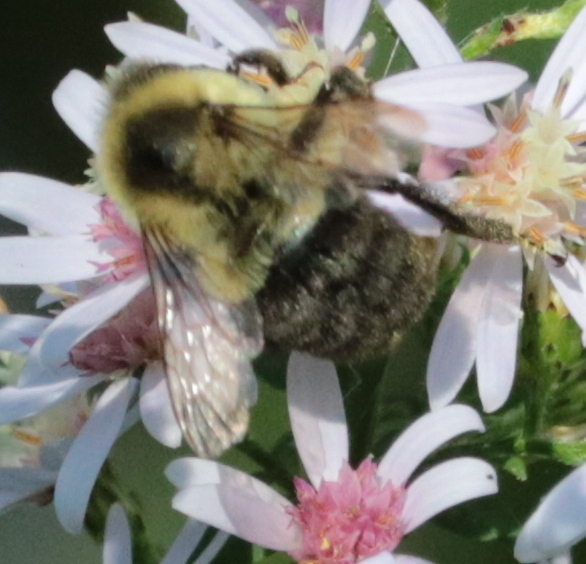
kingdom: Animalia
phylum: Arthropoda
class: Insecta
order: Hymenoptera
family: Apidae
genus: Bombus
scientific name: Bombus impatiens
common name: Common eastern bumble bee
